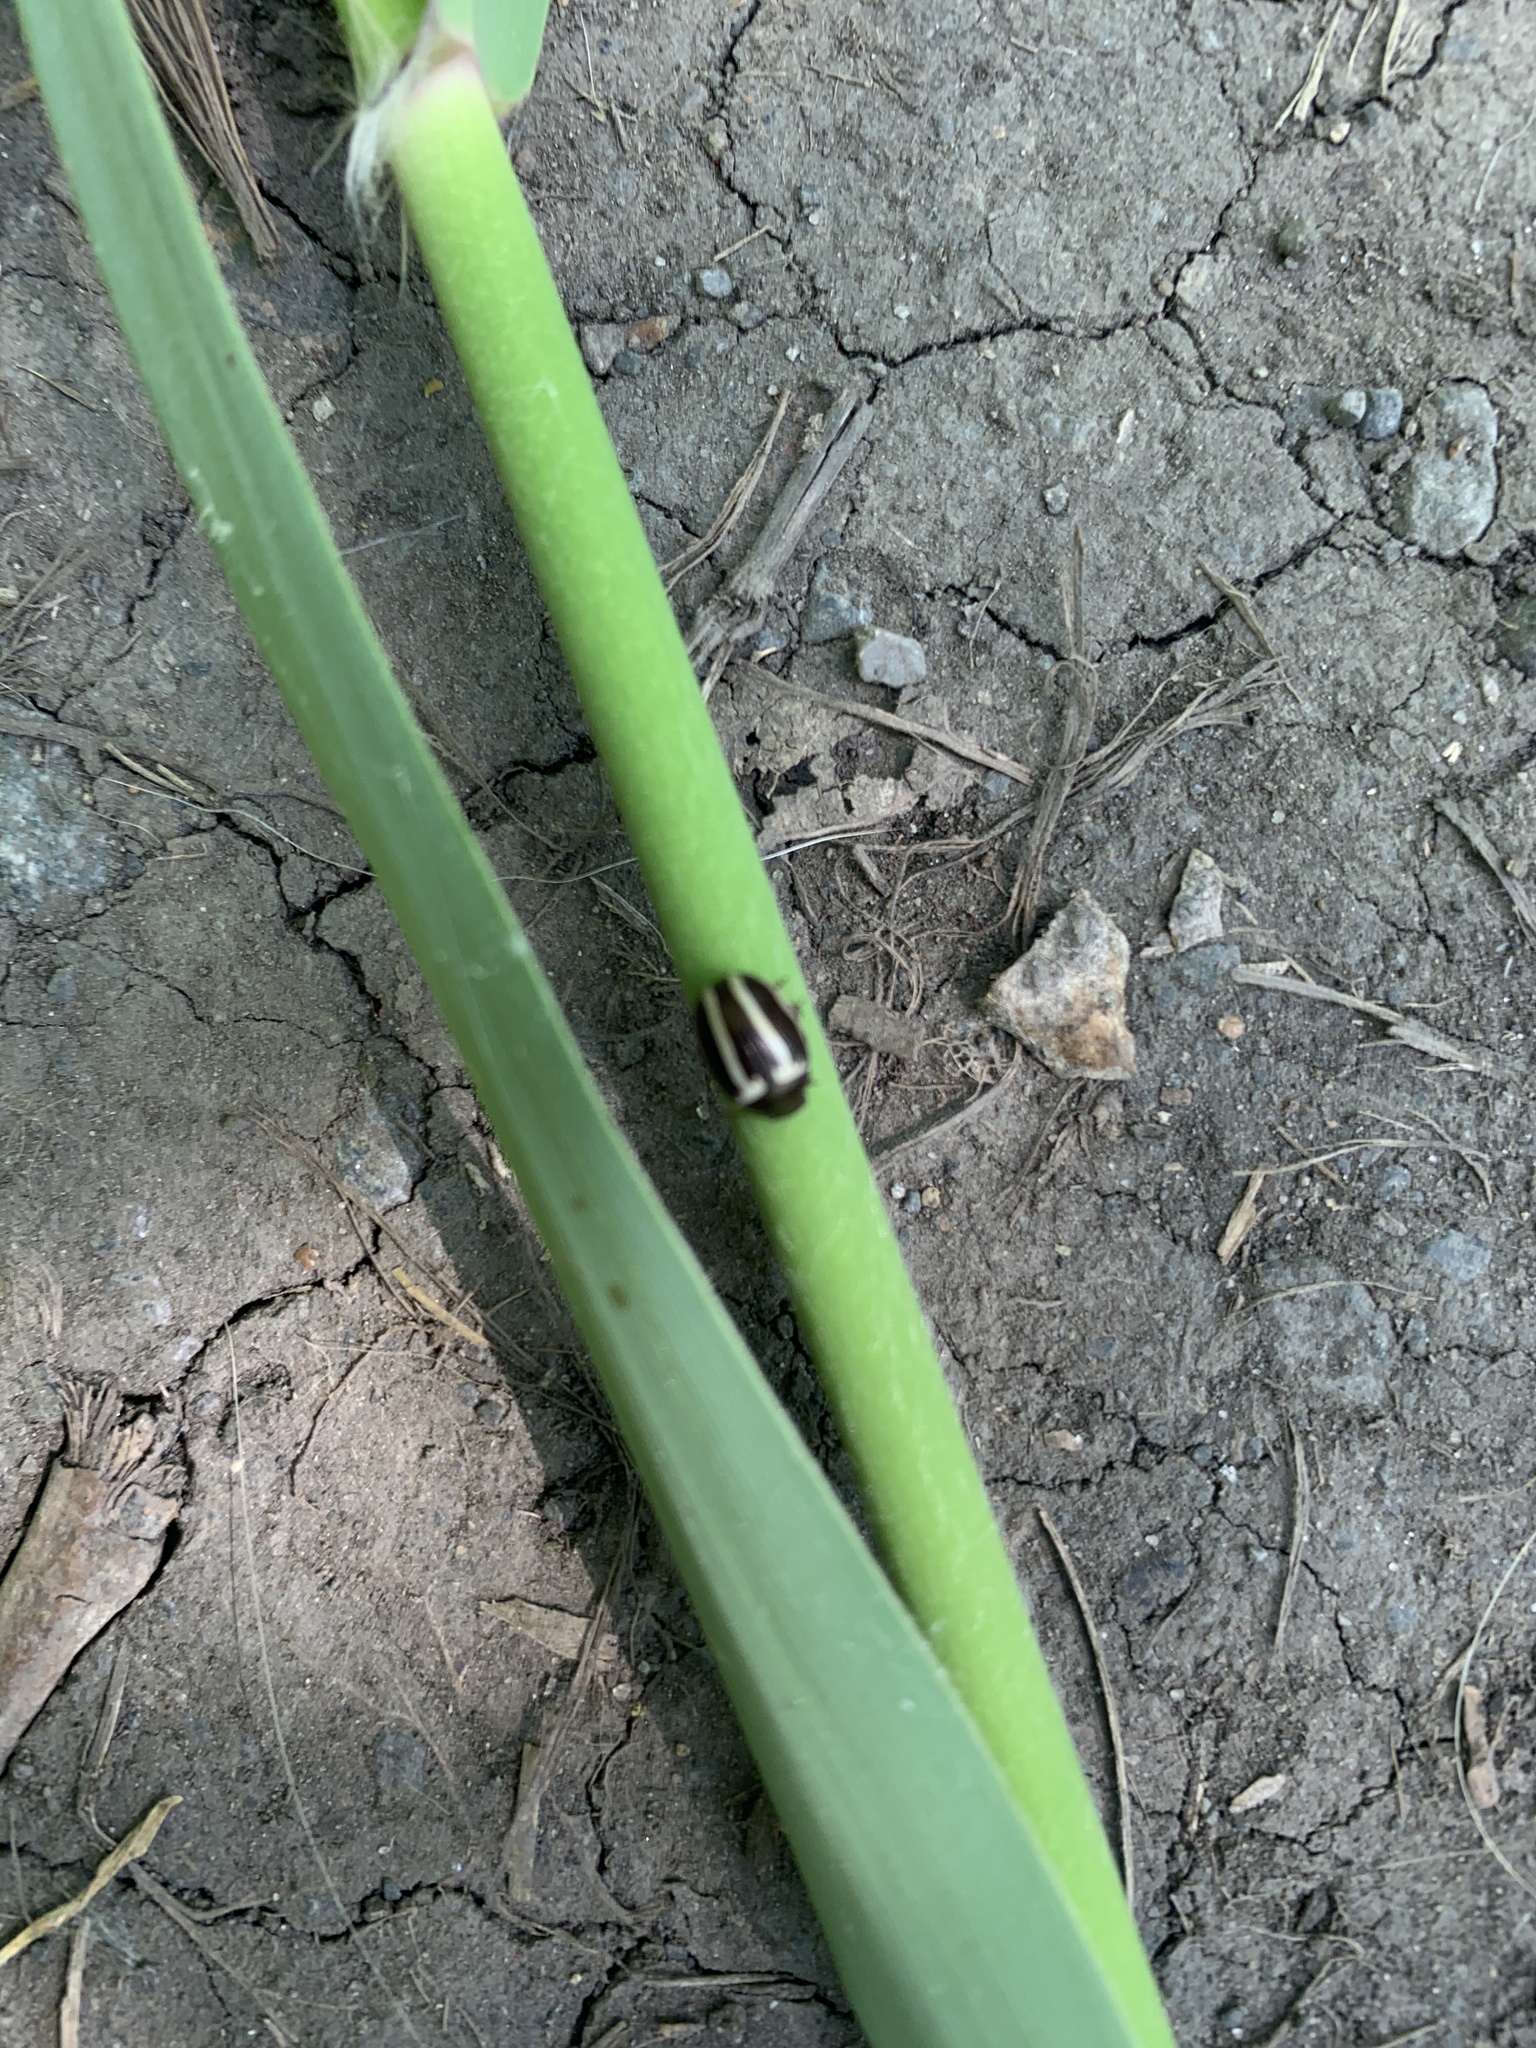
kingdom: Animalia
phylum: Arthropoda
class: Insecta
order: Coleoptera
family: Chrysomelidae
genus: Calligrapha
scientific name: Calligrapha
